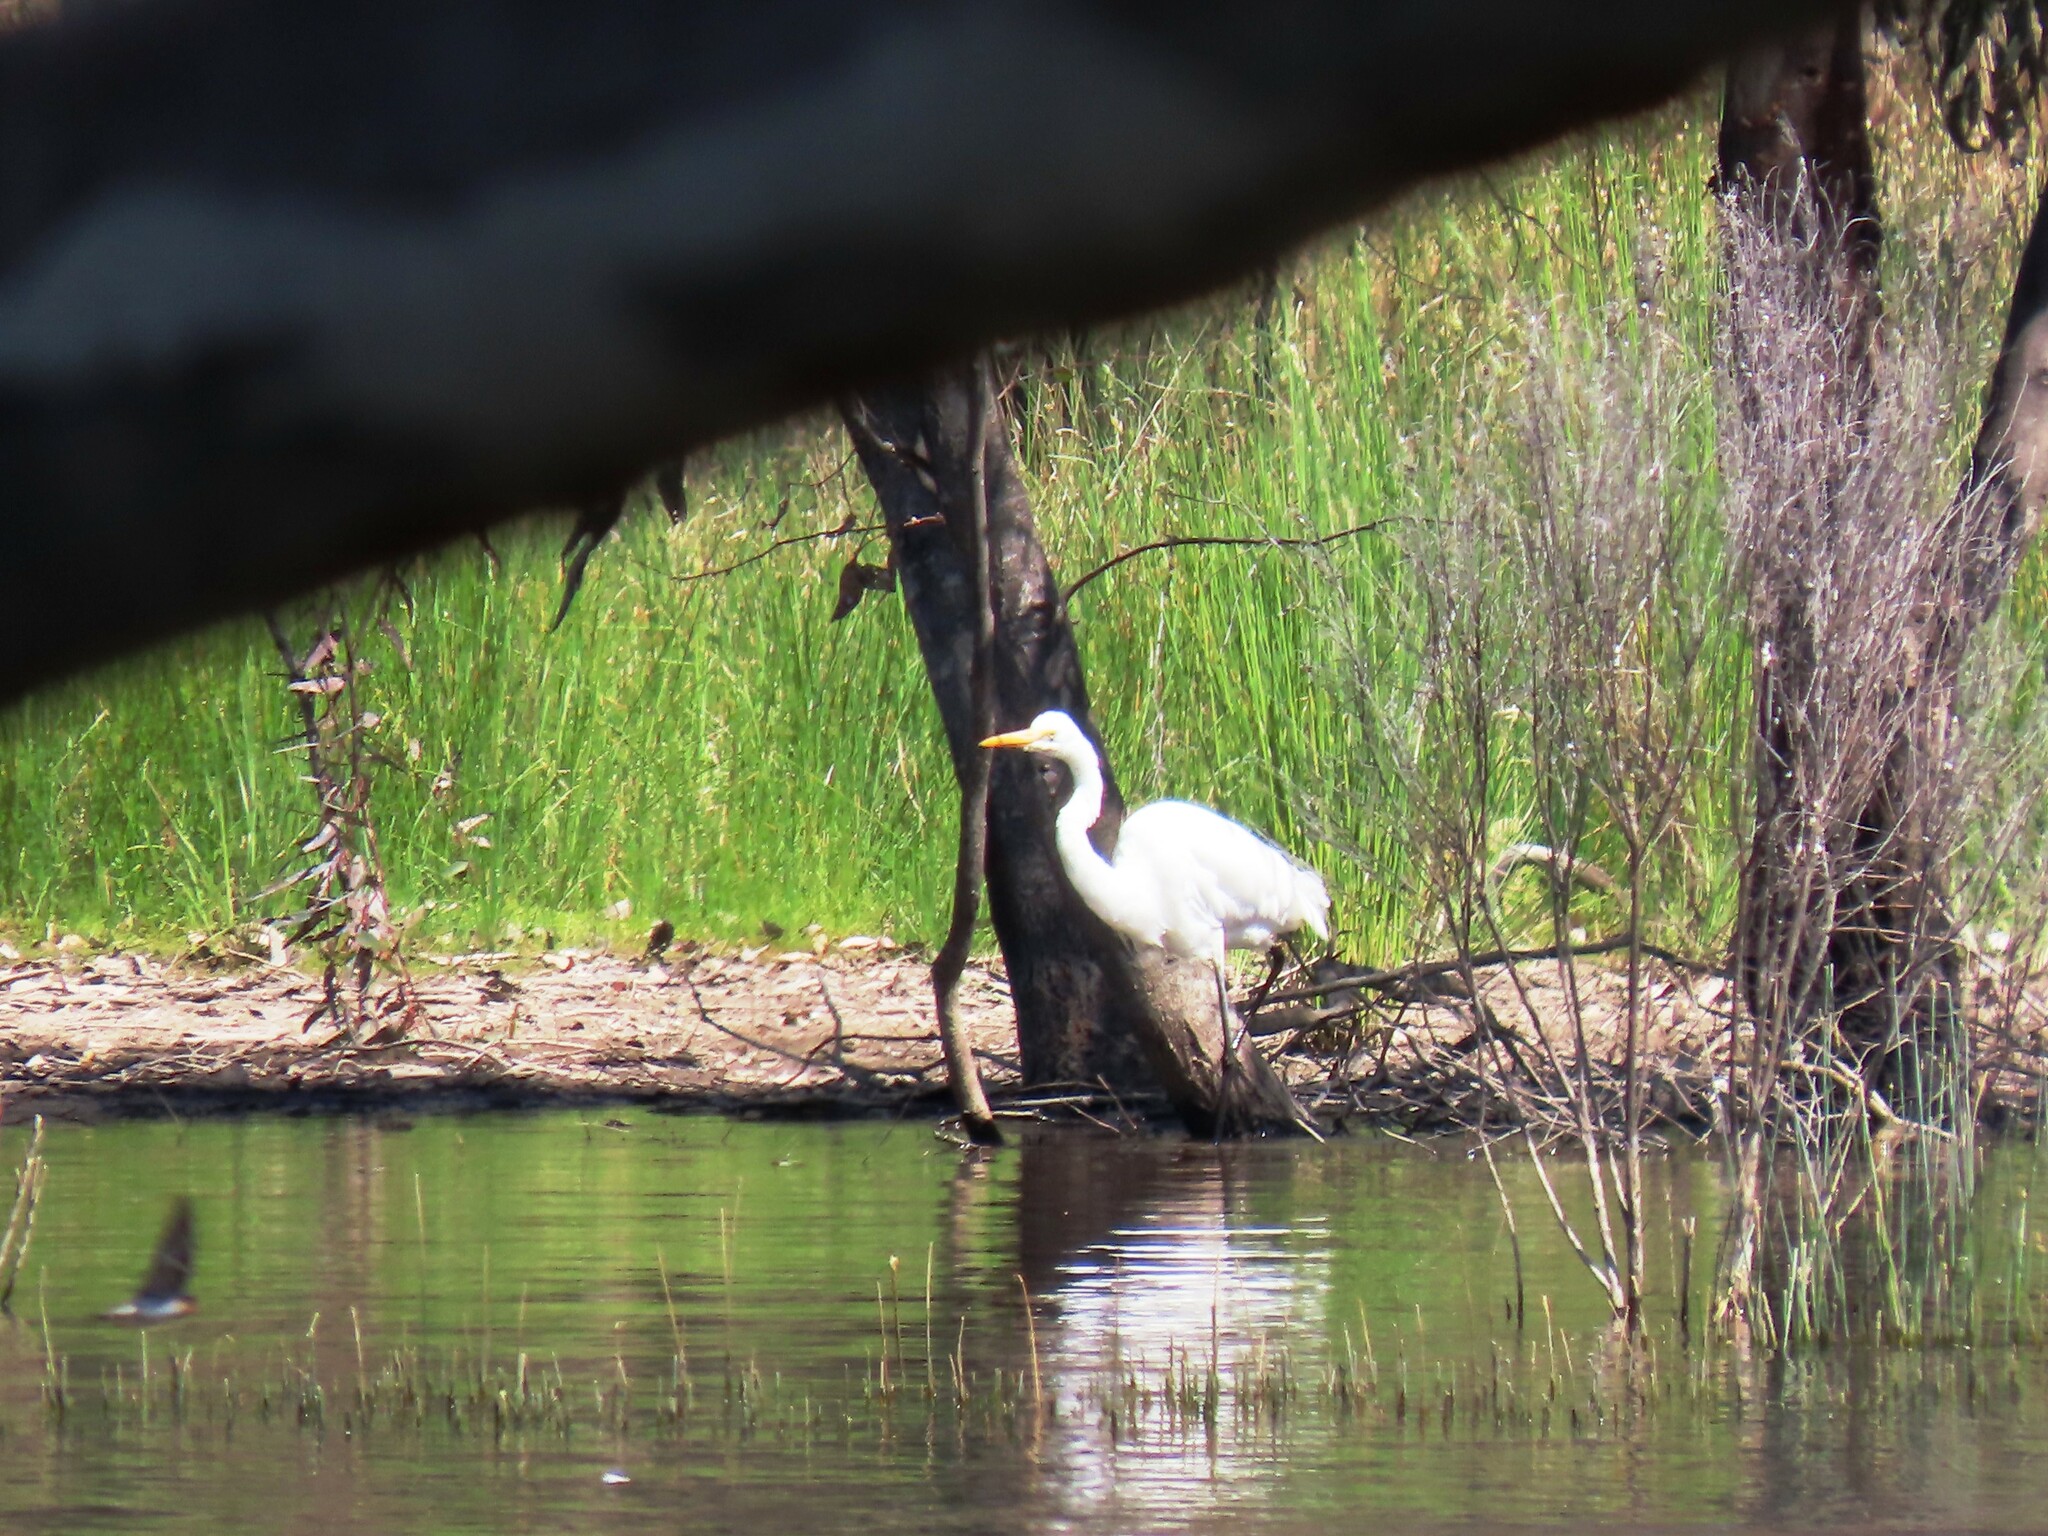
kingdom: Animalia
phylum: Chordata
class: Aves
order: Pelecaniformes
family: Ardeidae
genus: Ardea
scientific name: Ardea alba
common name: Great egret
